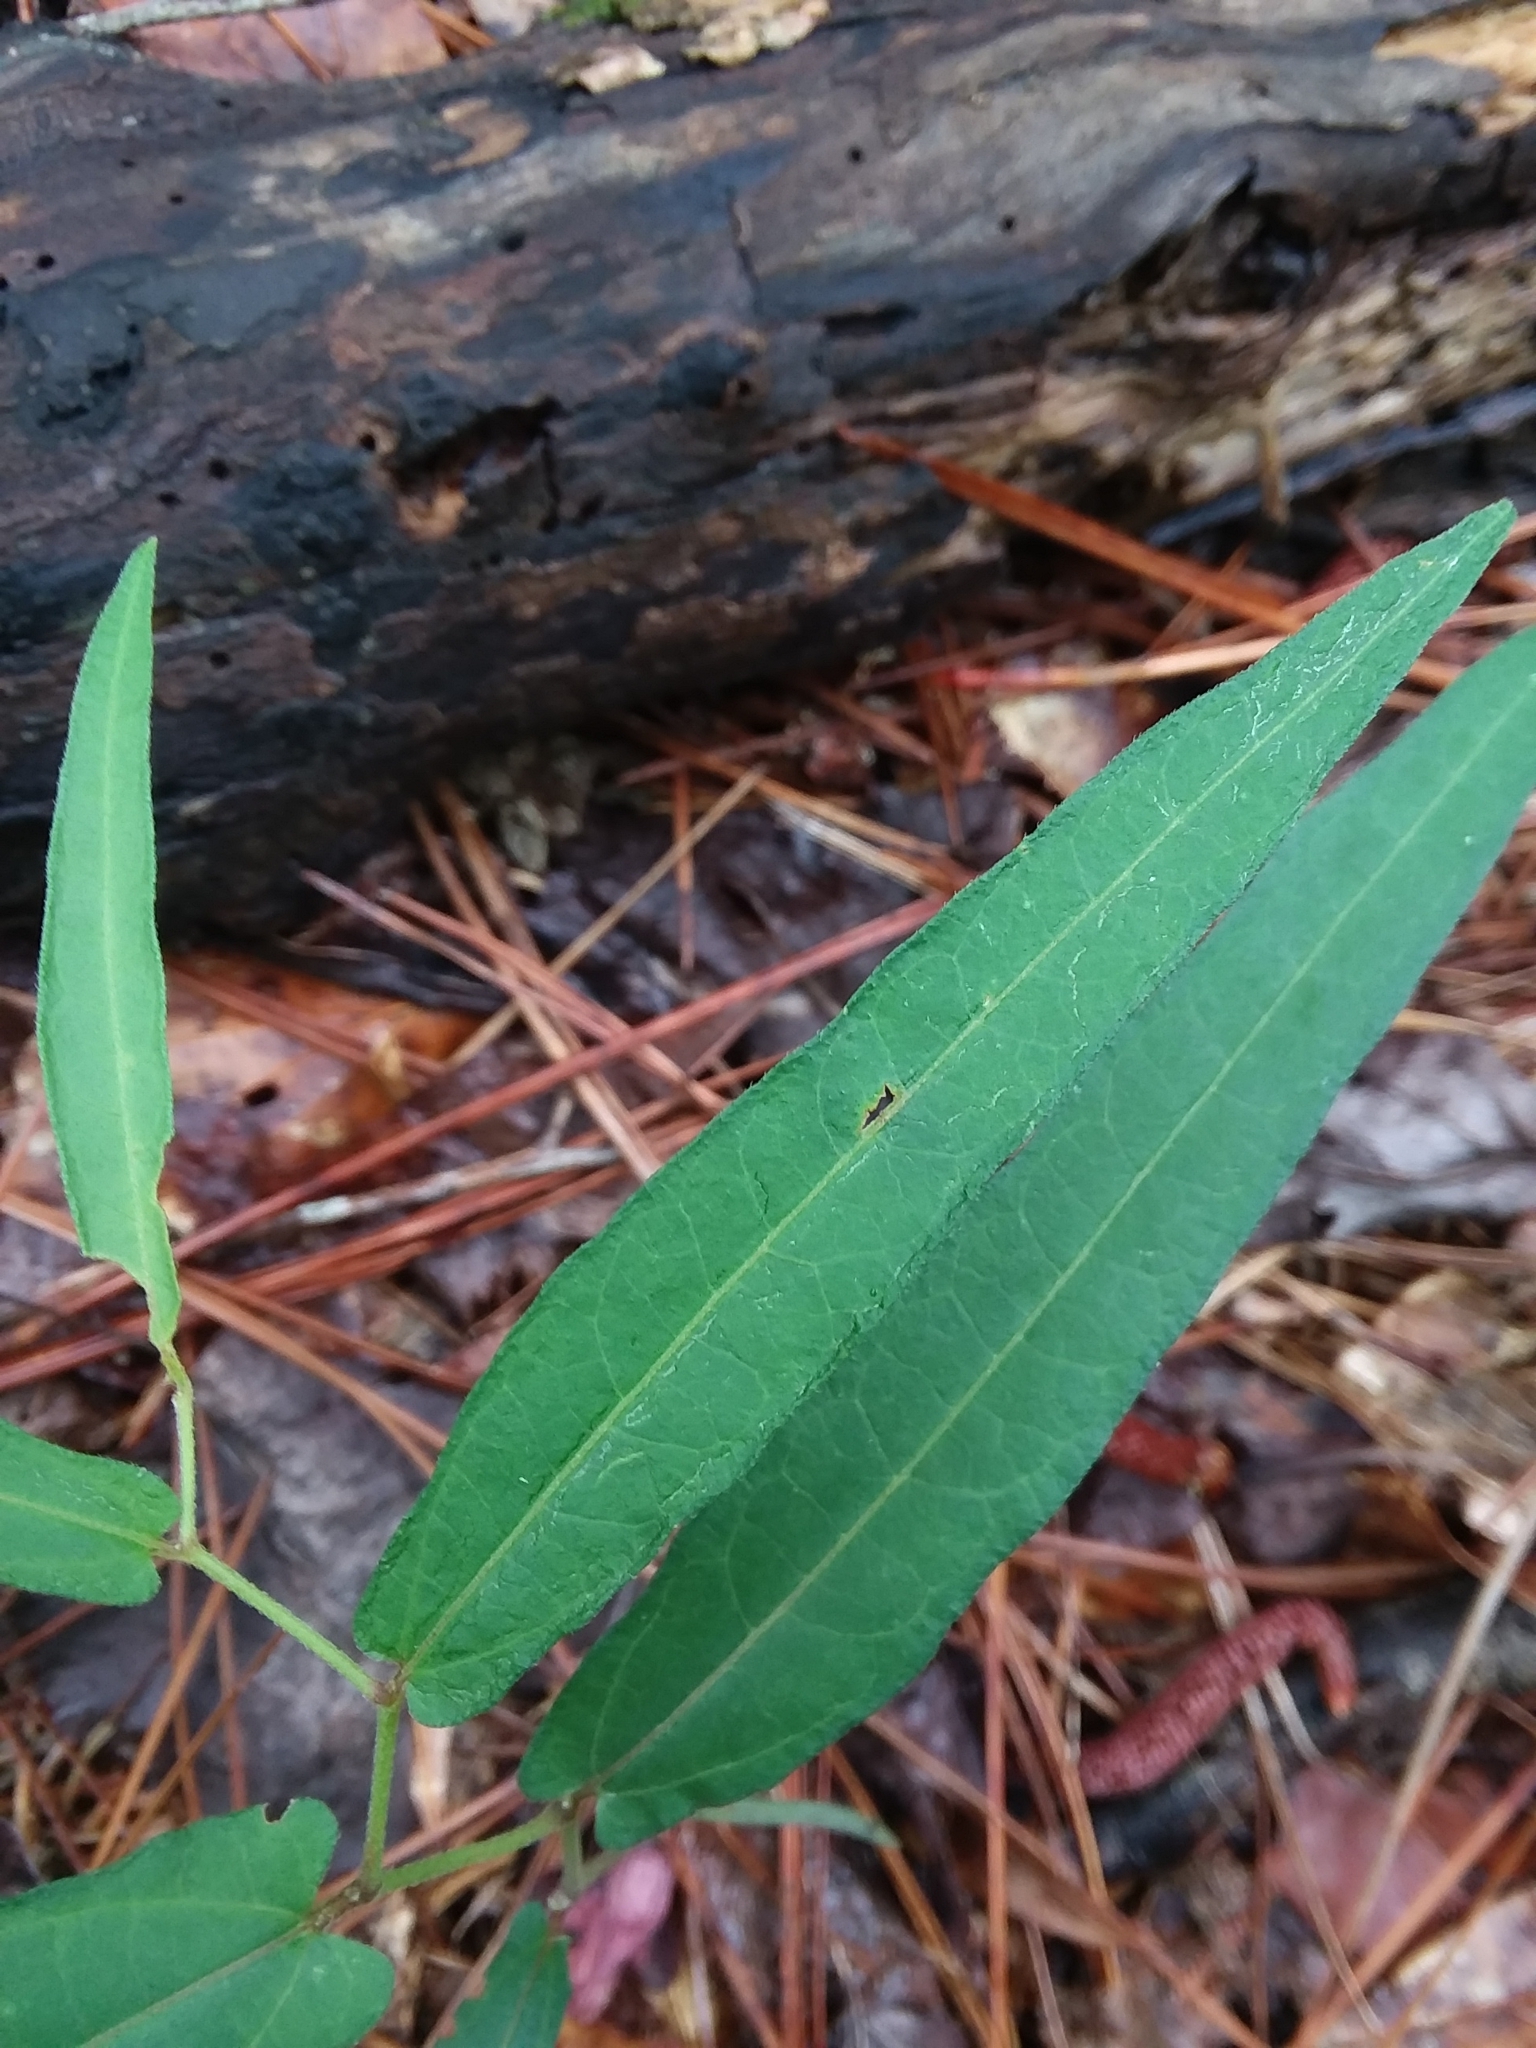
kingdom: Plantae
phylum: Tracheophyta
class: Magnoliopsida
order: Piperales
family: Aristolochiaceae
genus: Endodeca
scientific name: Endodeca serpentaria
